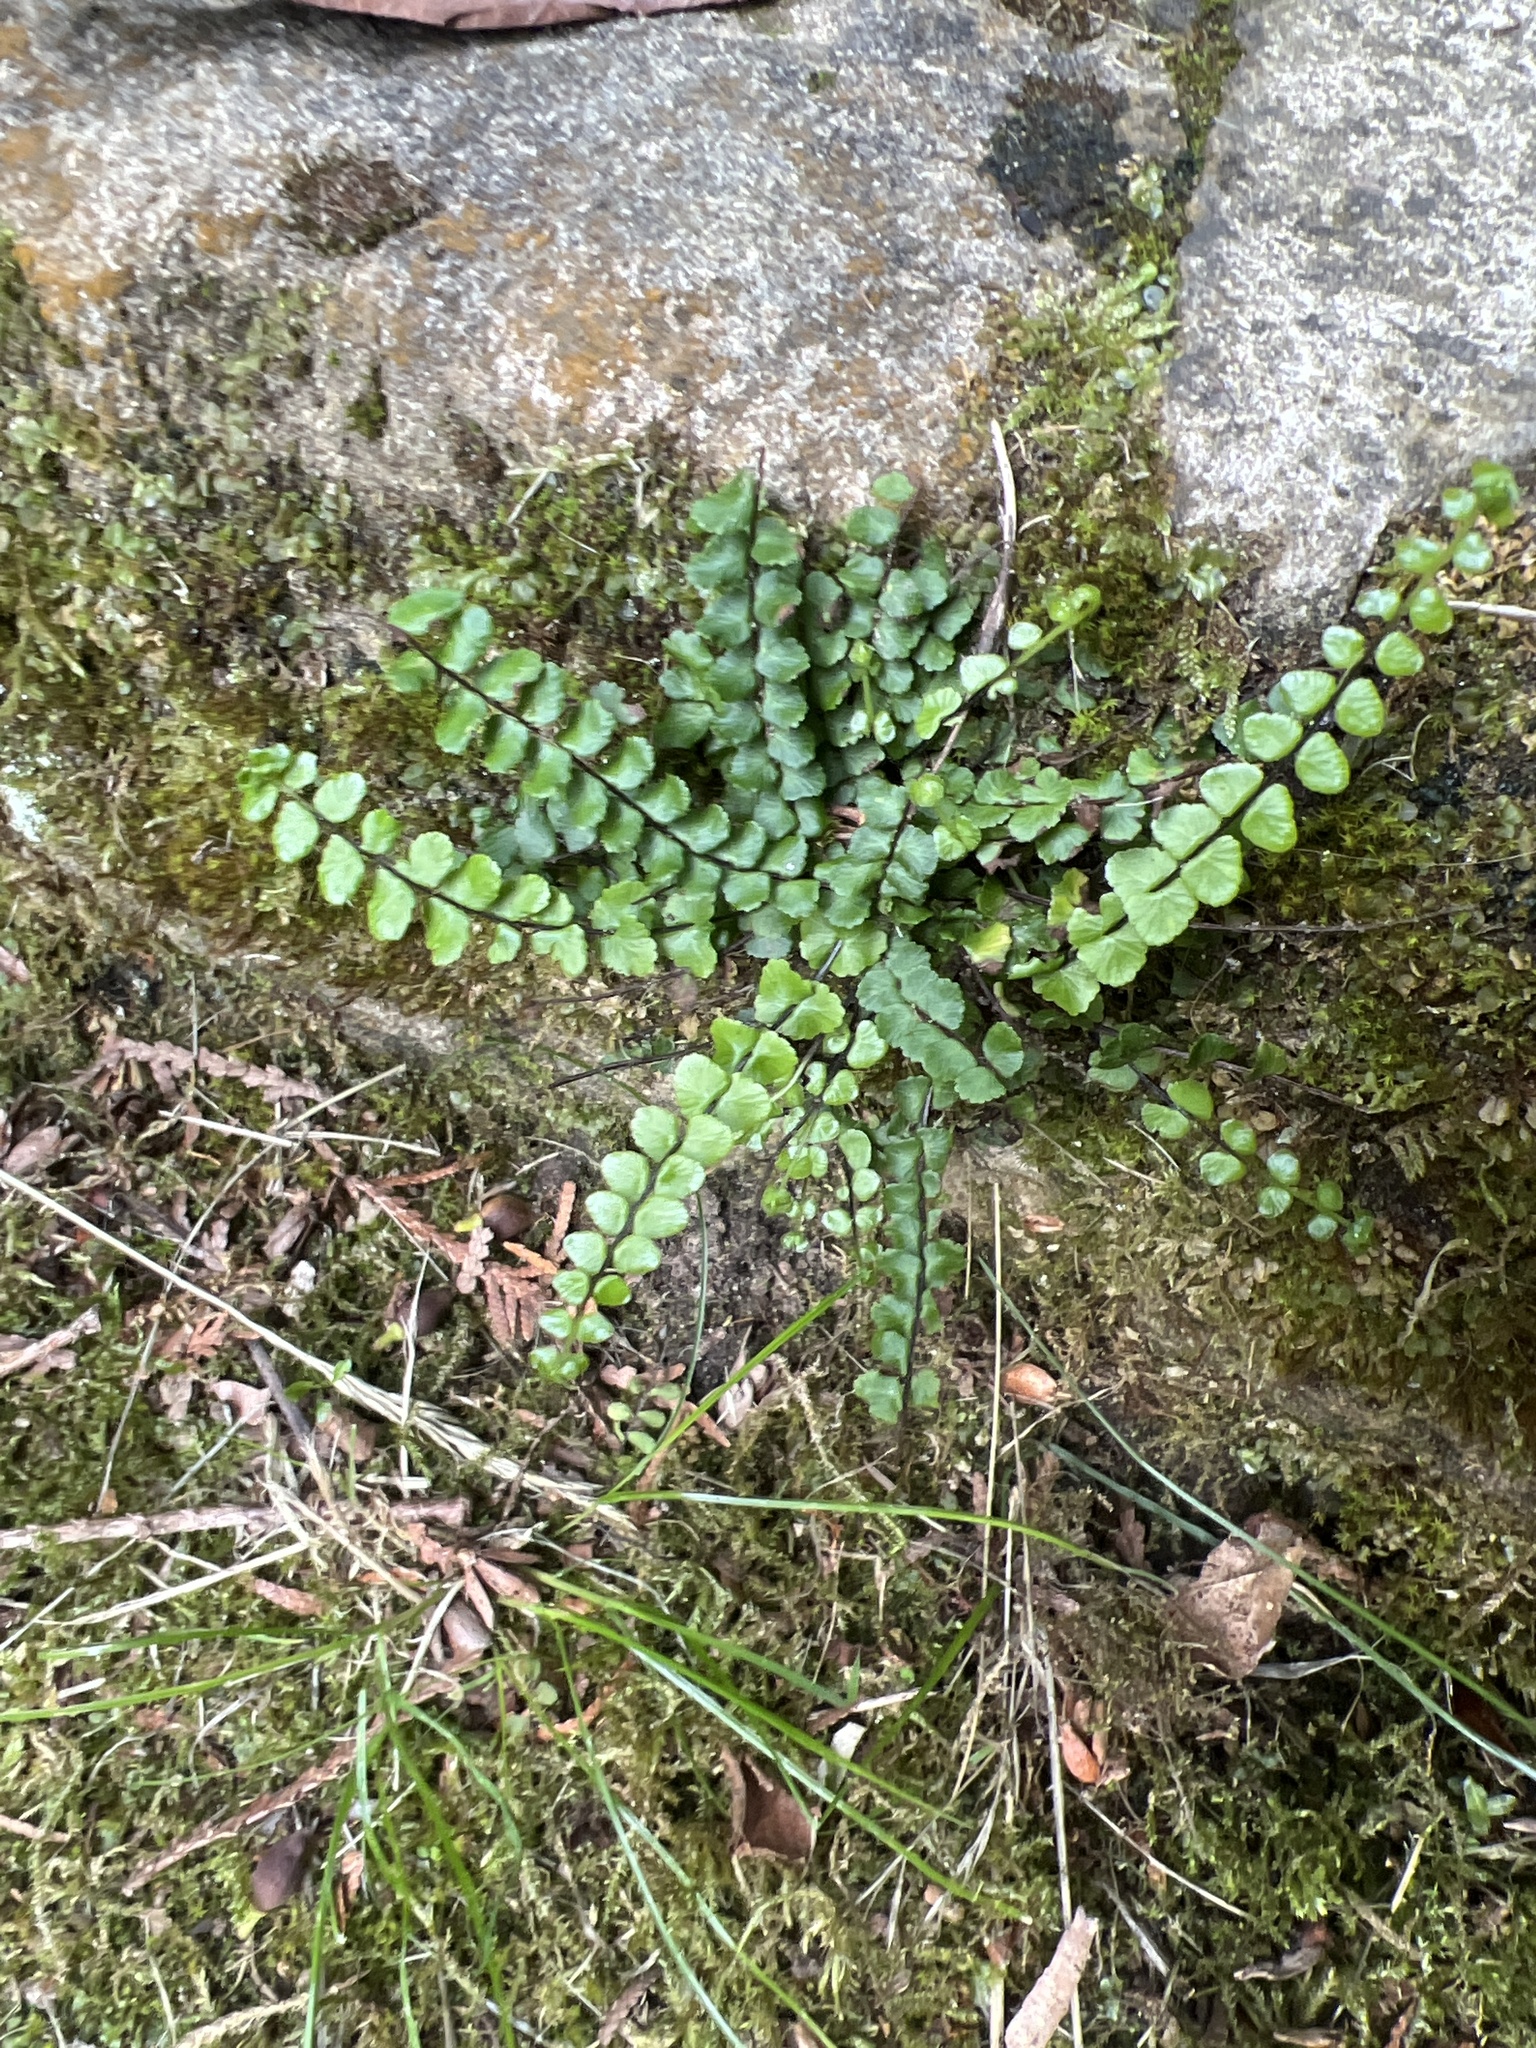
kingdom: Plantae
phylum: Tracheophyta
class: Polypodiopsida
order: Polypodiales
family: Aspleniaceae
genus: Asplenium
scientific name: Asplenium trichomanes
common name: Maidenhair spleenwort
